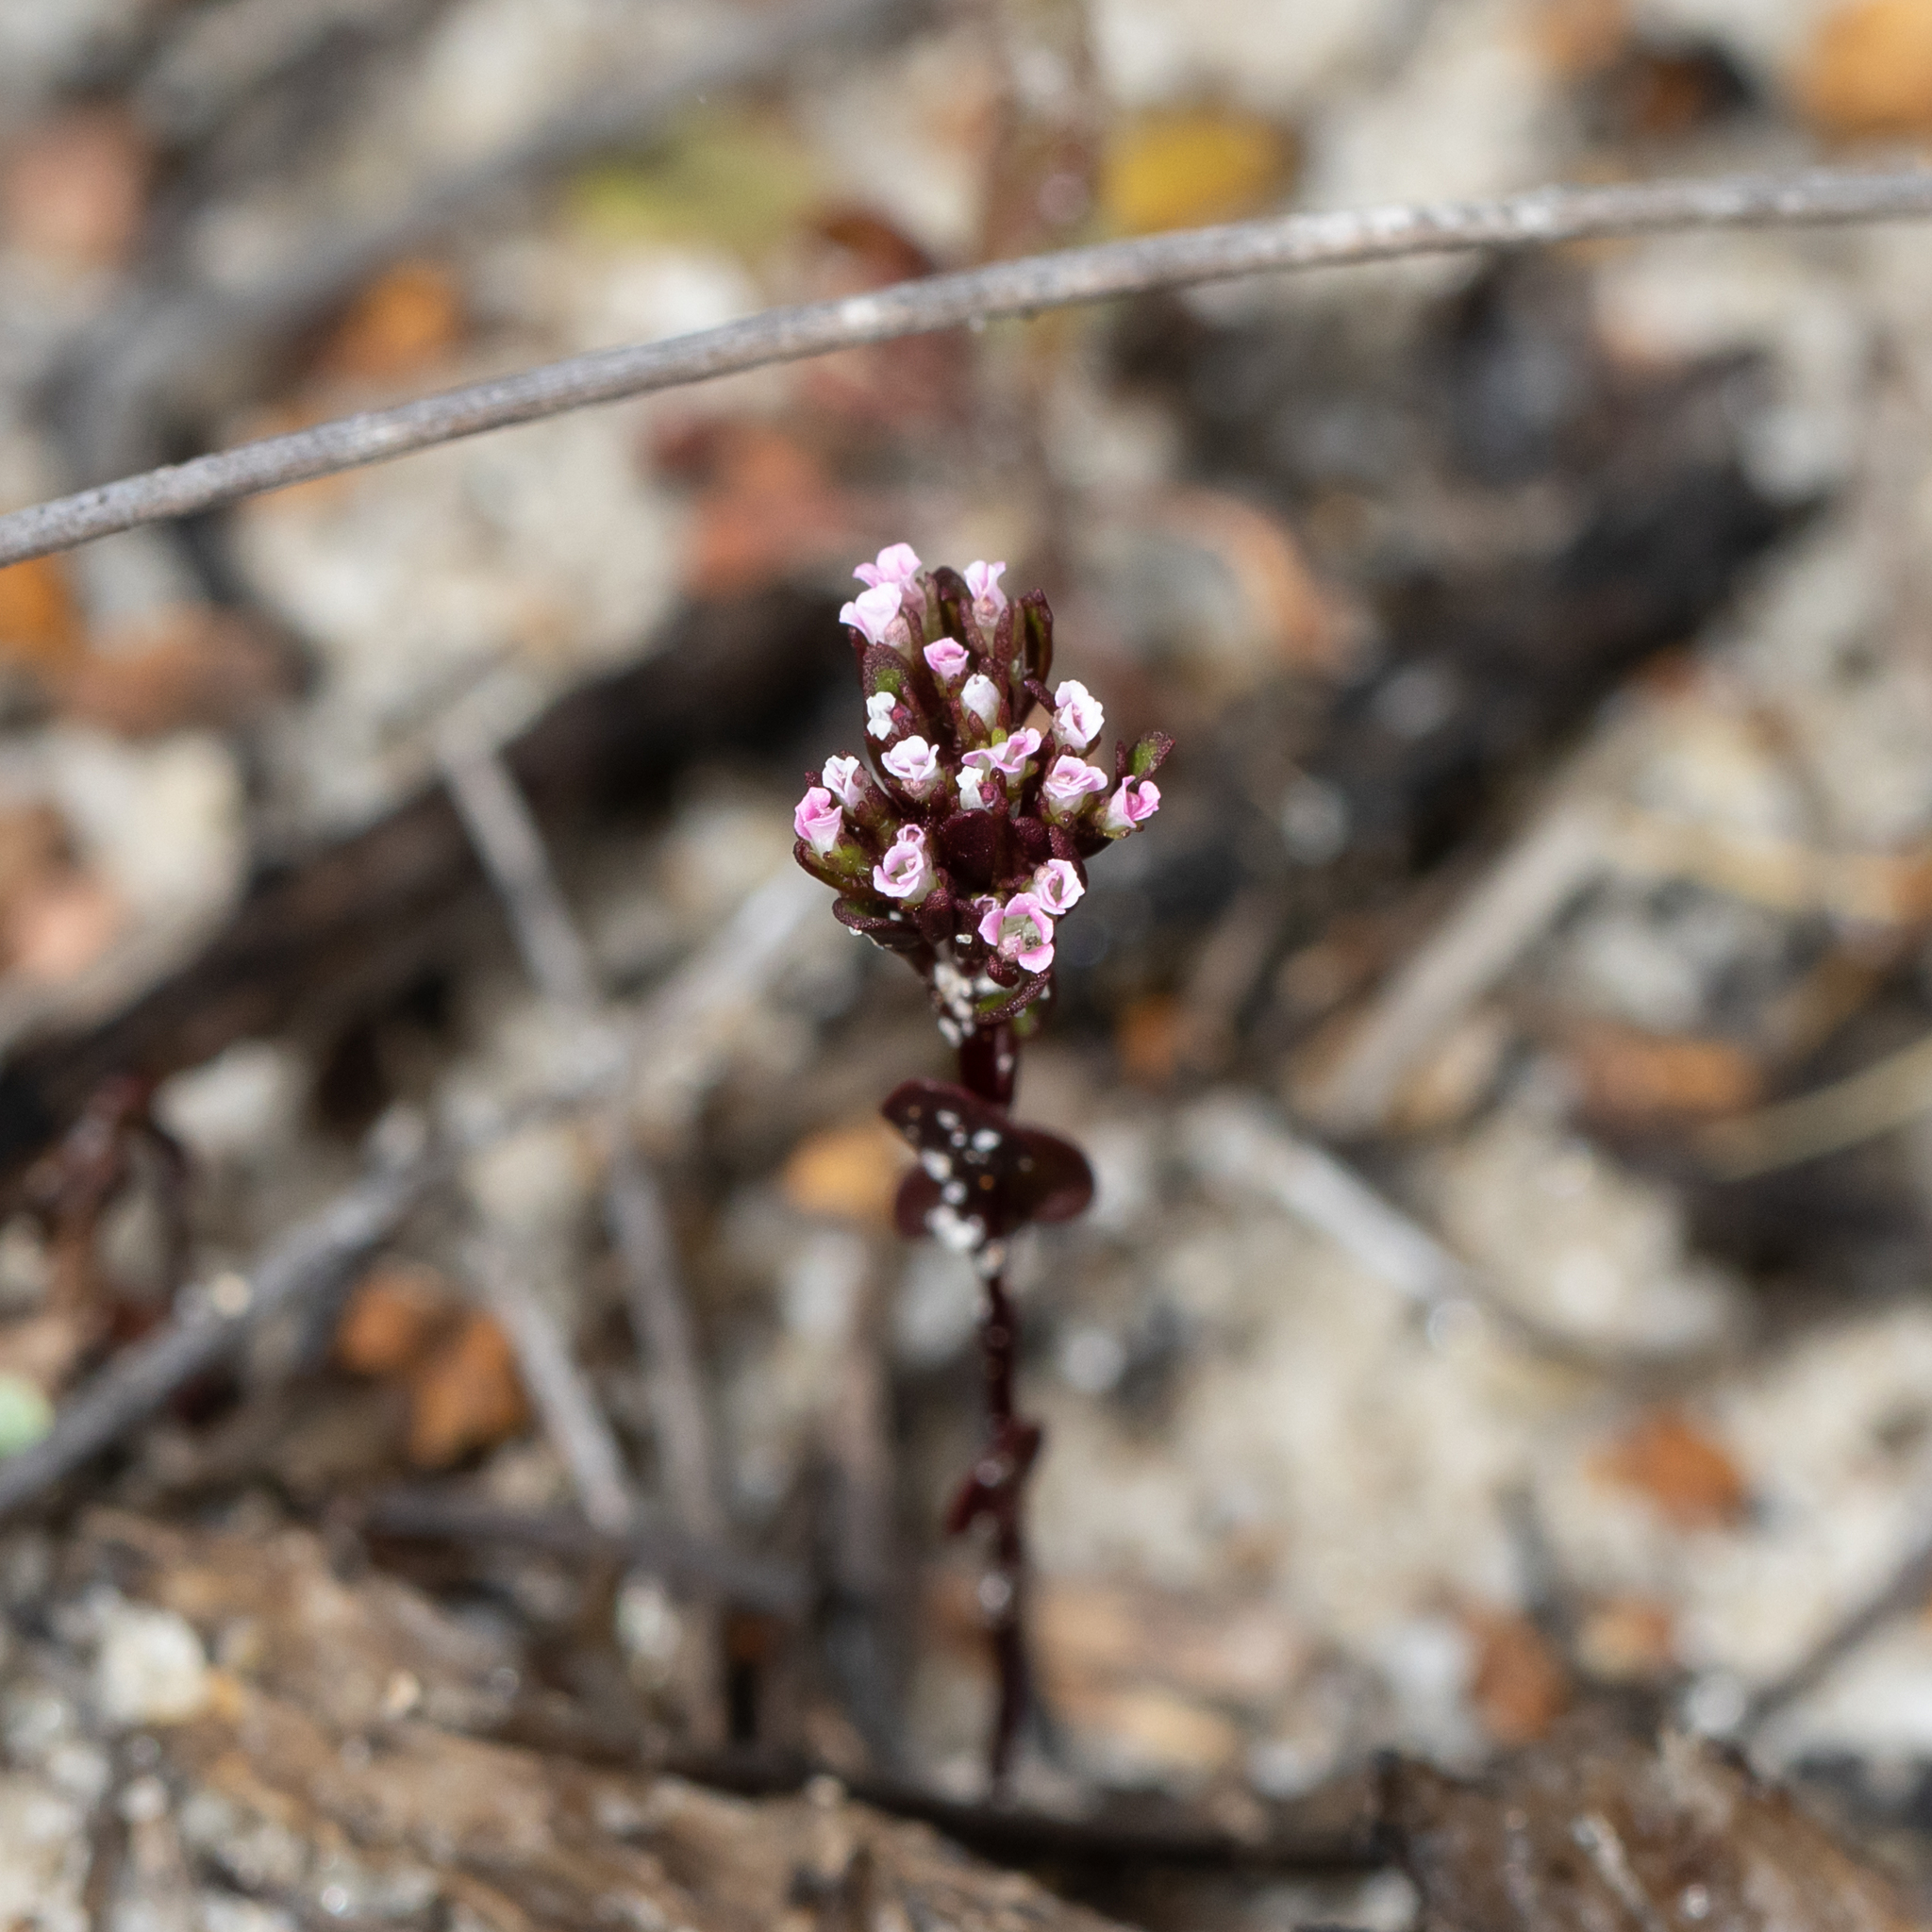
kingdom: Plantae
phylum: Tracheophyta
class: Magnoliopsida
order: Asterales
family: Stylidiaceae
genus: Levenhookia
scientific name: Levenhookia pusilla
